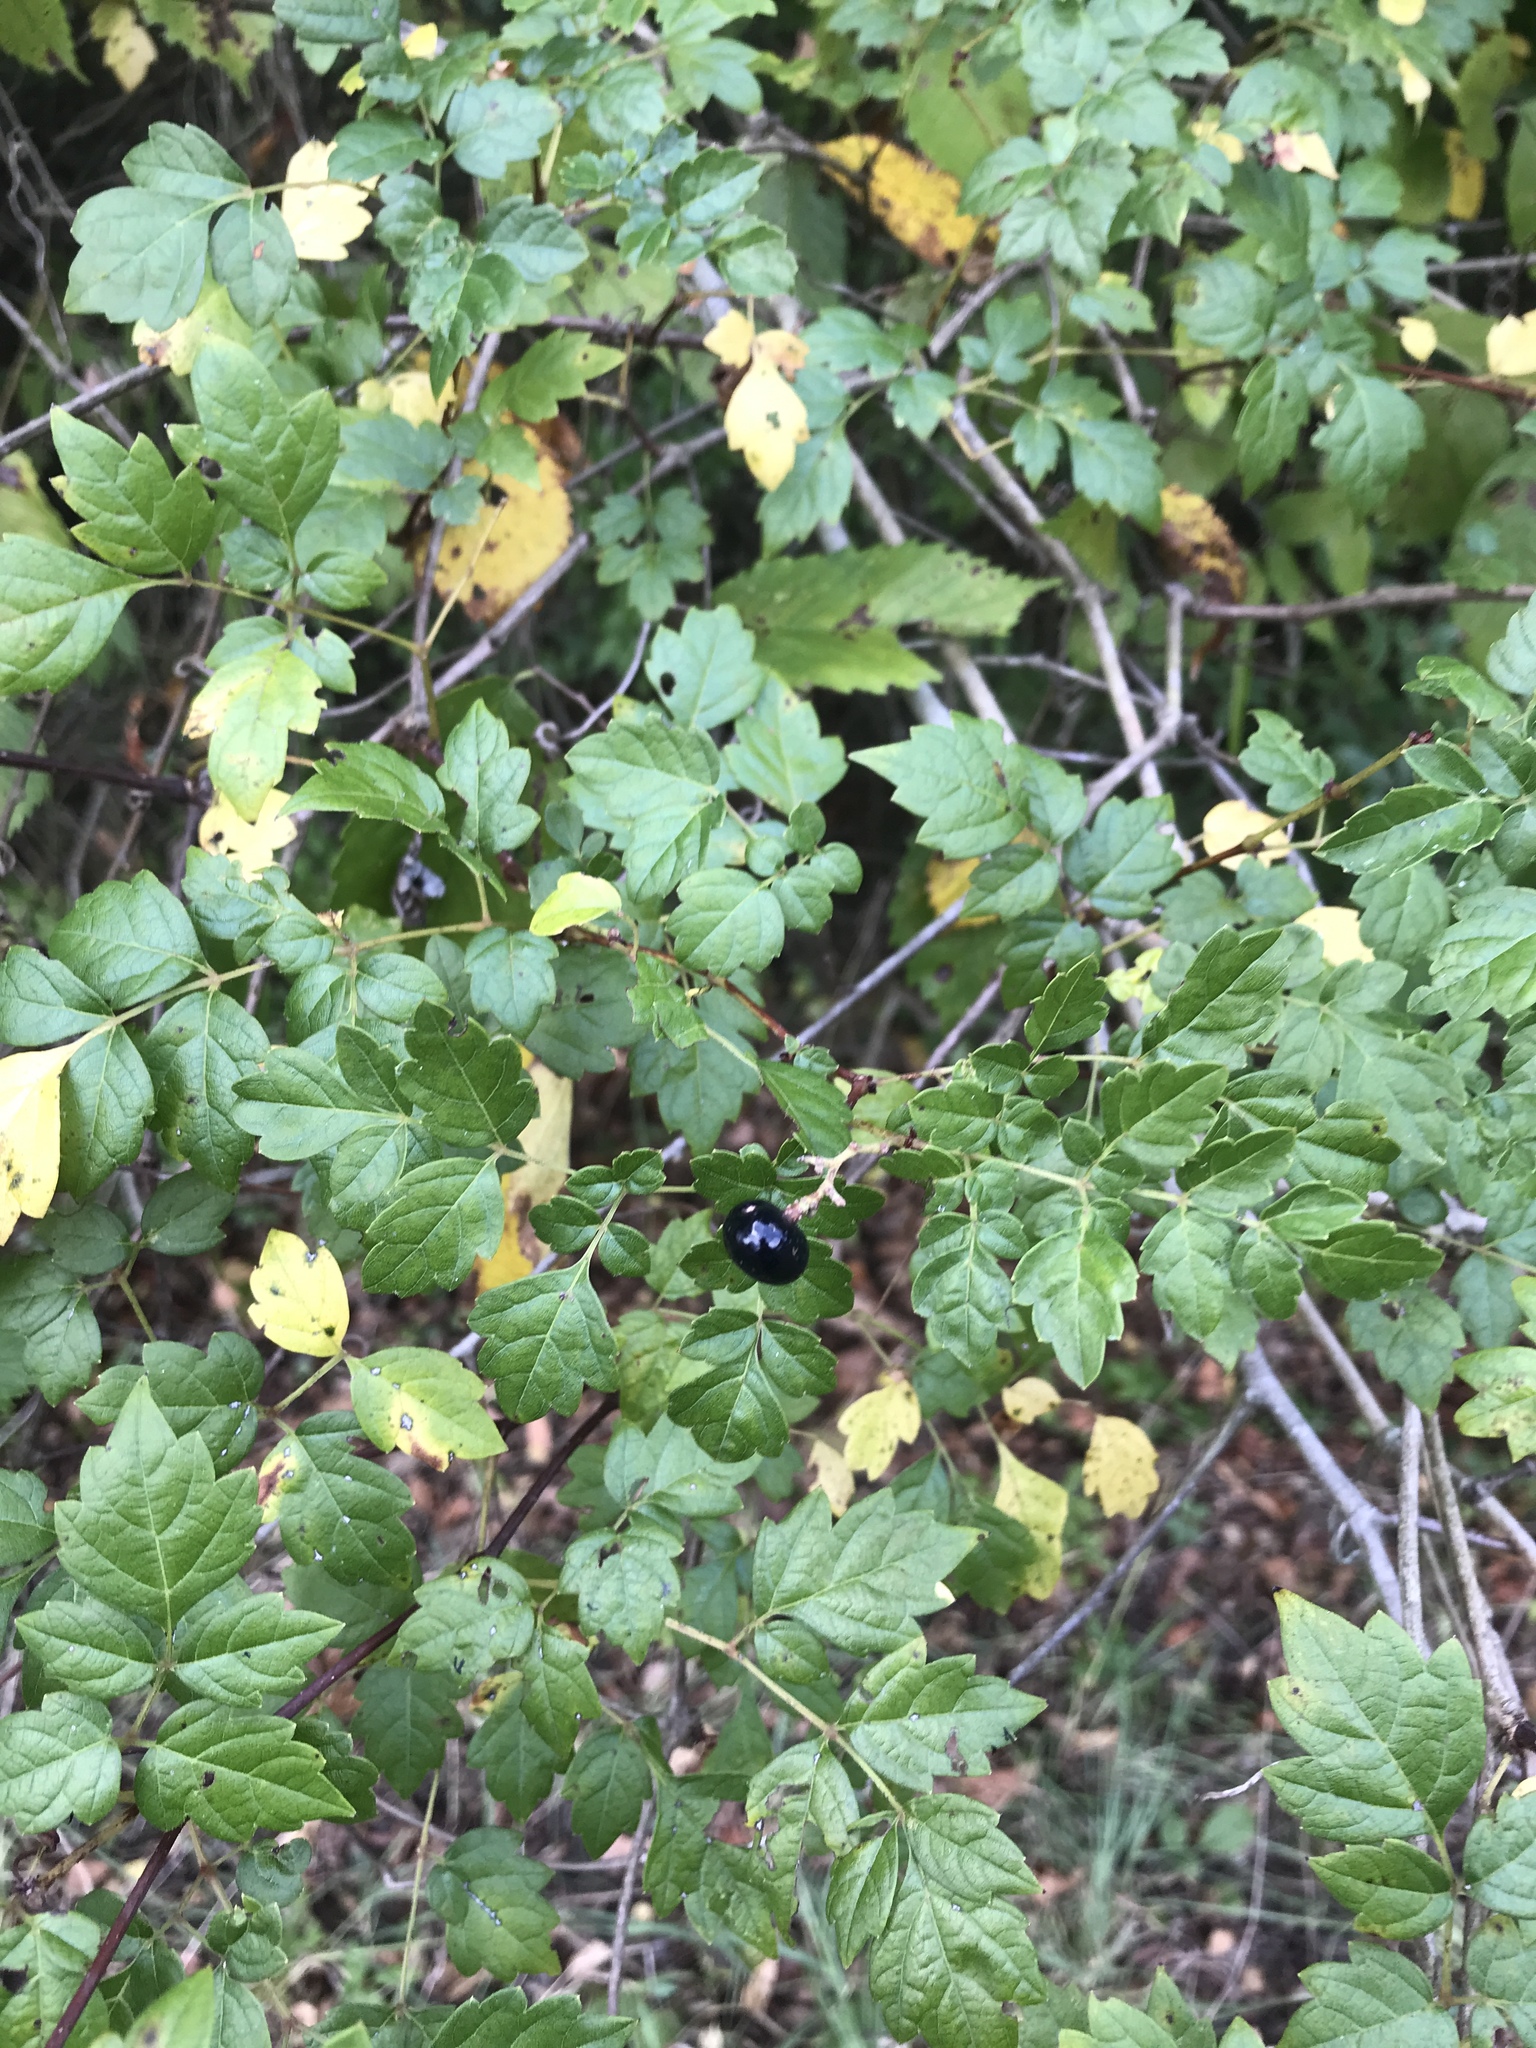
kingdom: Plantae
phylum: Tracheophyta
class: Magnoliopsida
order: Vitales
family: Vitaceae
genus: Nekemias
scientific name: Nekemias arborea
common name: Peppervine
